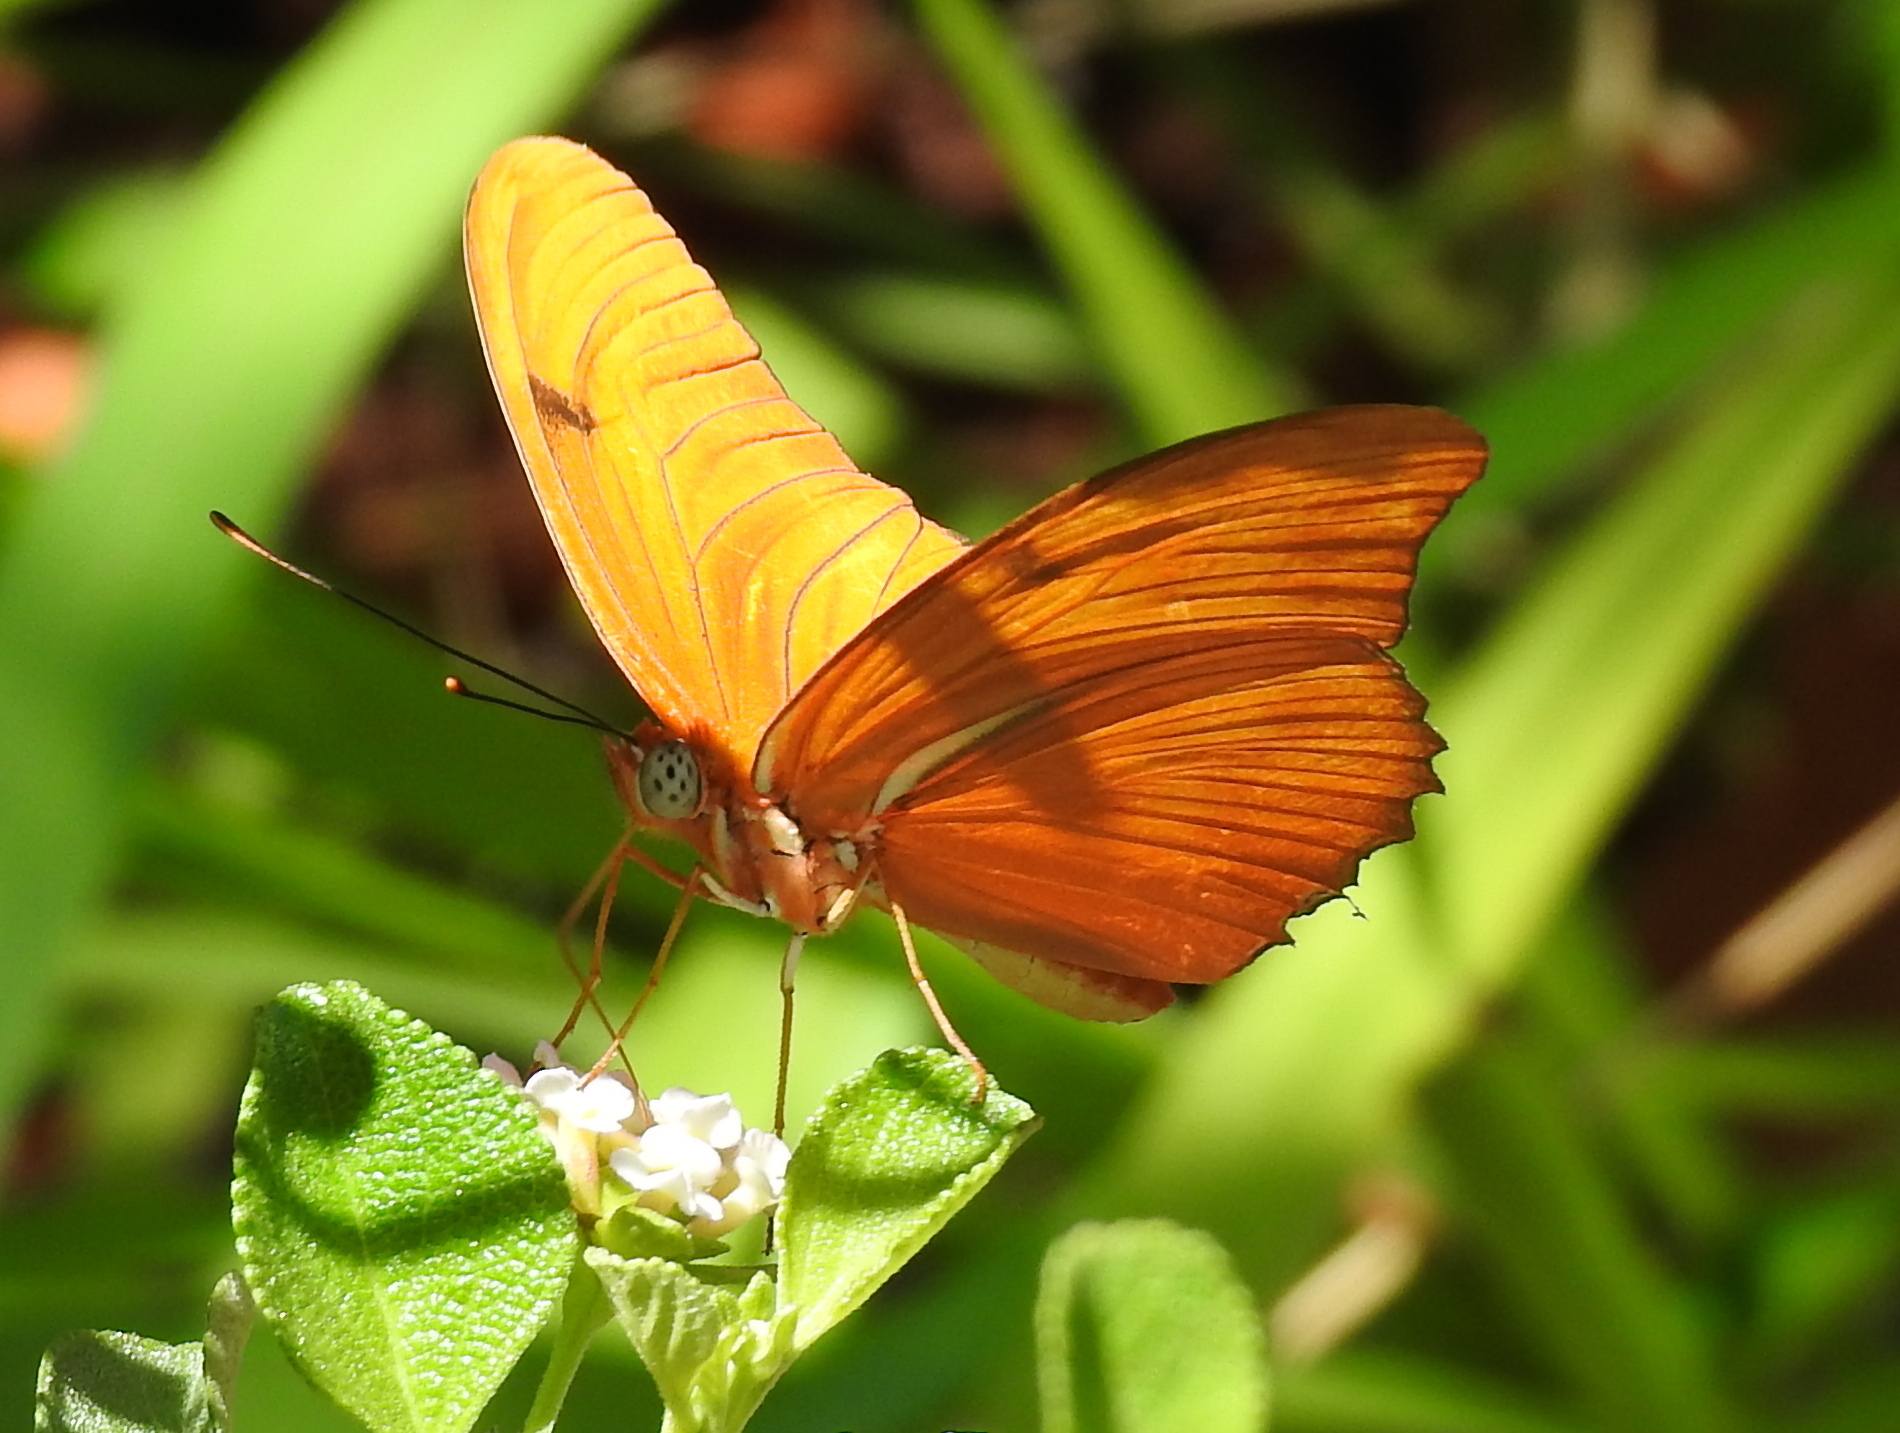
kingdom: Animalia
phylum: Arthropoda
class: Insecta
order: Lepidoptera
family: Nymphalidae
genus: Dryas
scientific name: Dryas iulia
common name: Flambeau
